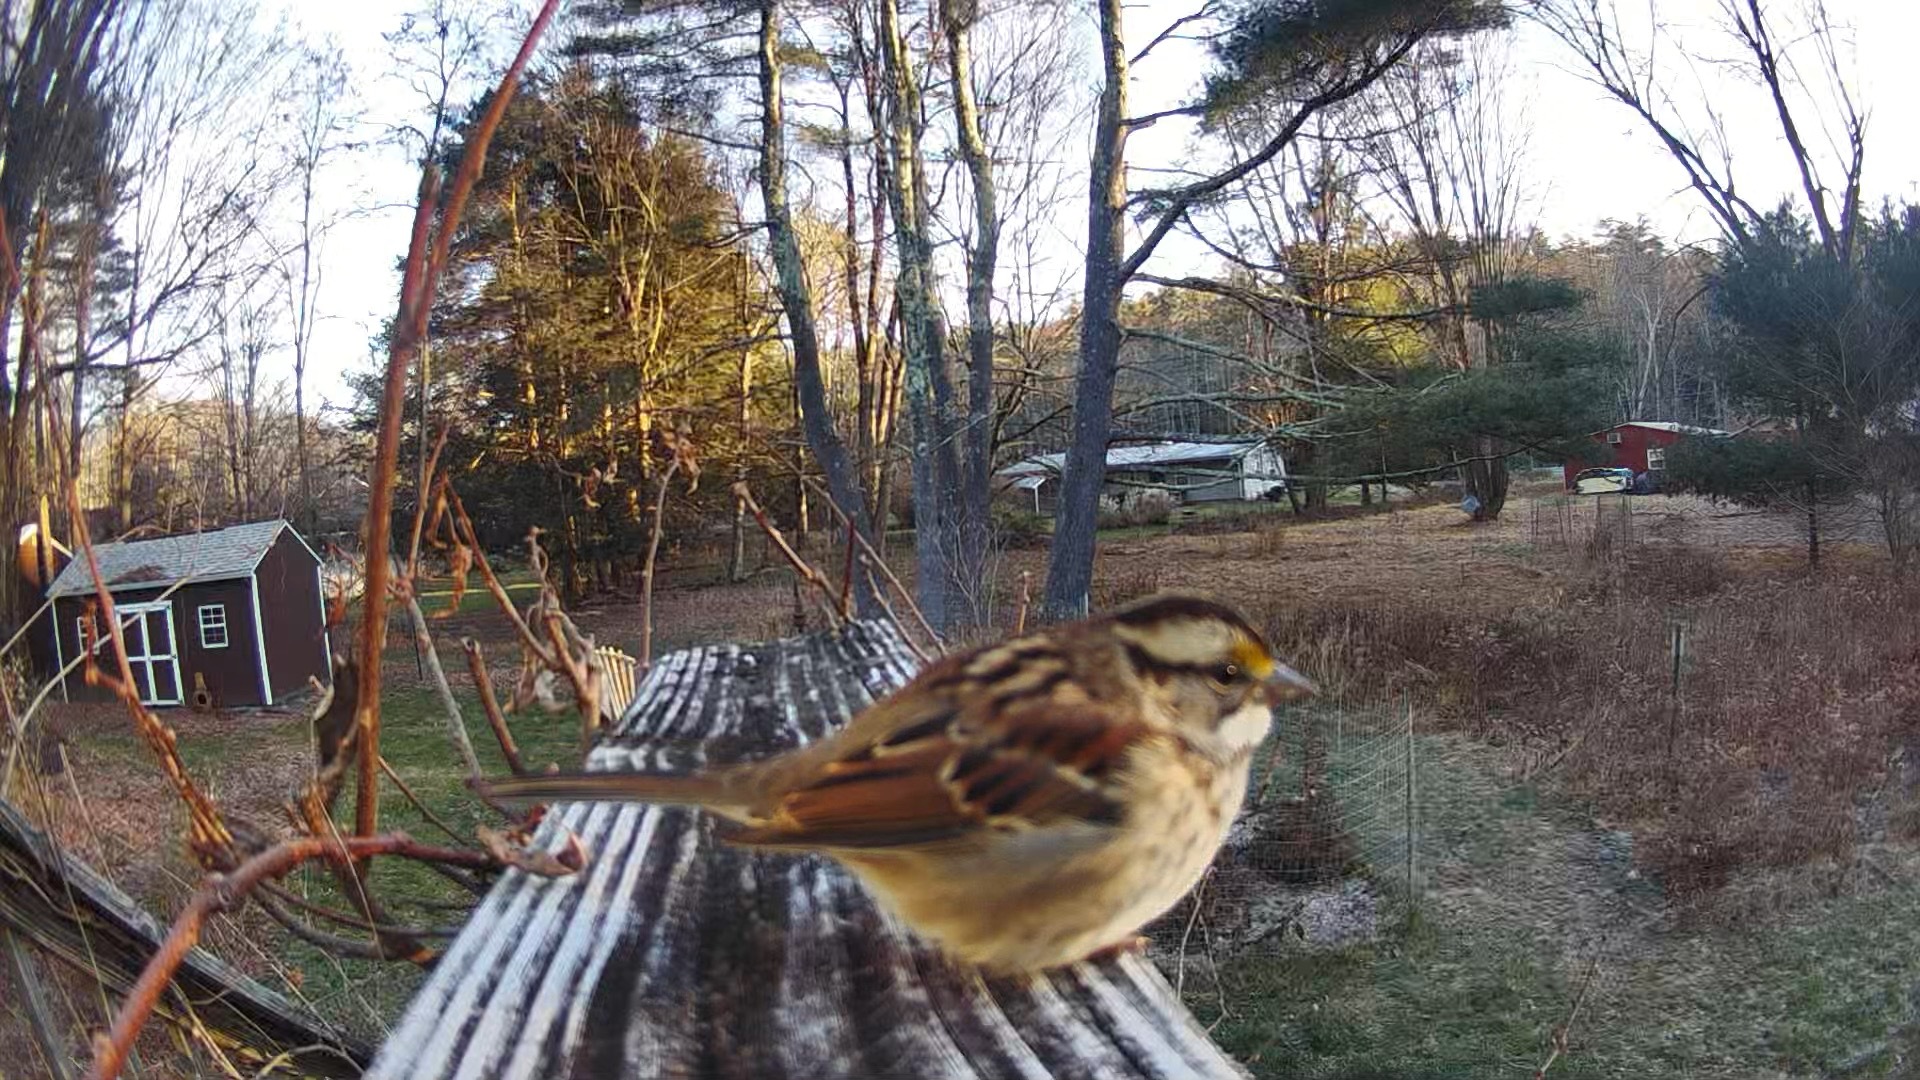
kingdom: Animalia
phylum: Chordata
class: Aves
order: Passeriformes
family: Passerellidae
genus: Zonotrichia
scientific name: Zonotrichia albicollis
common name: White-throated sparrow
